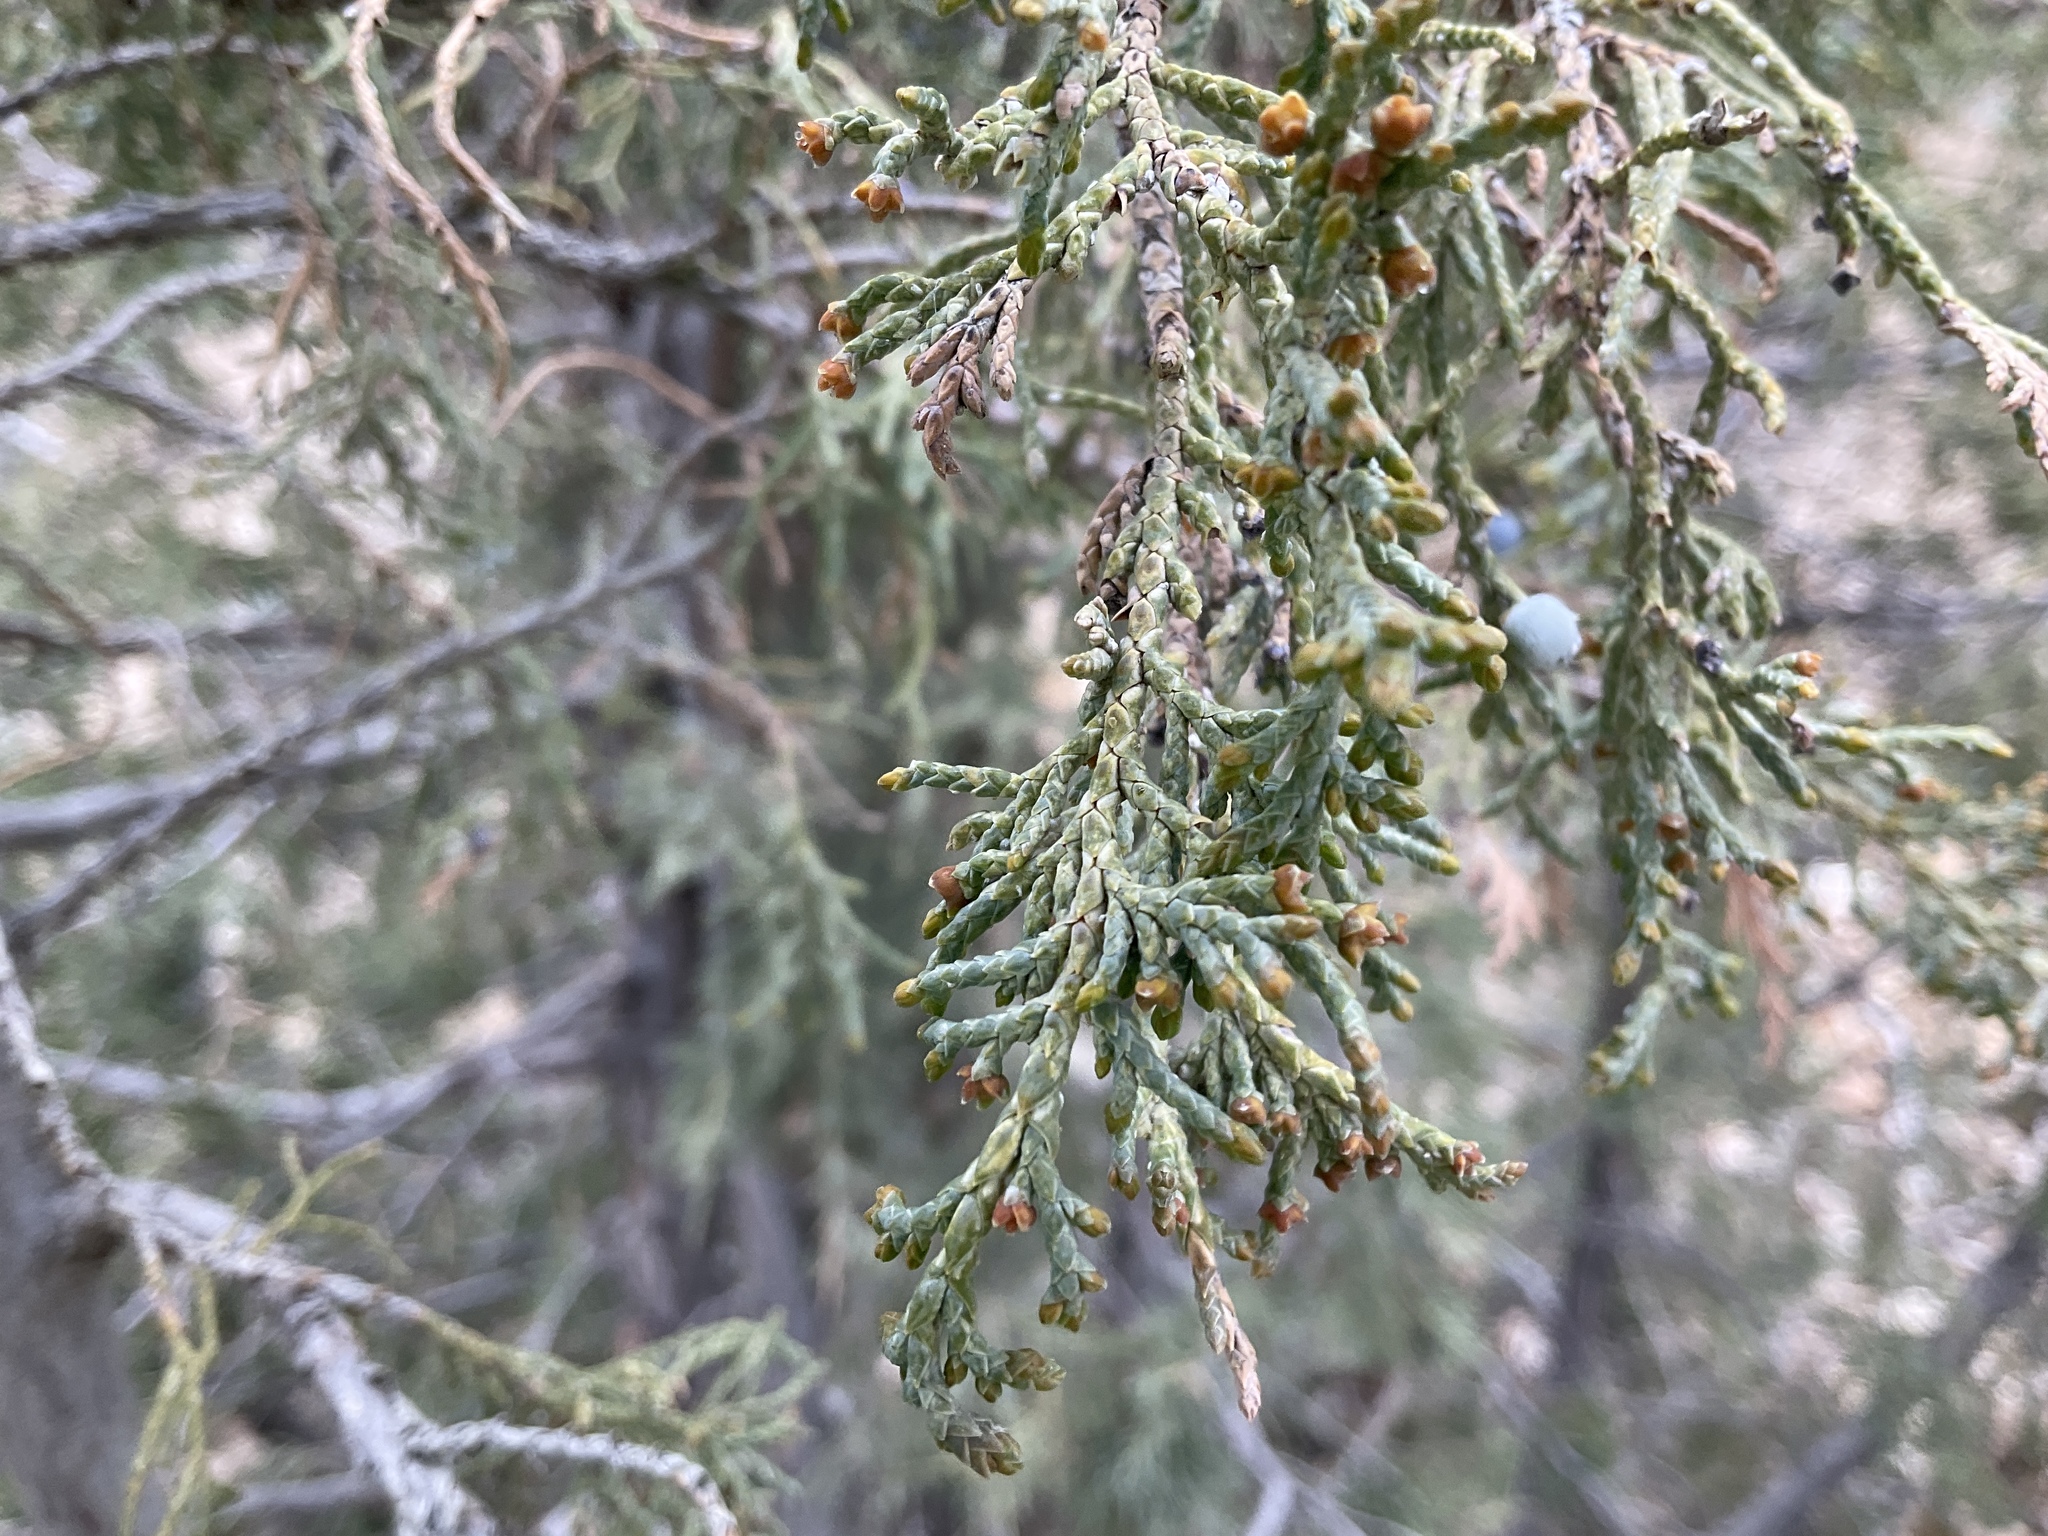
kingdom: Plantae
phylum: Tracheophyta
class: Pinopsida
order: Pinales
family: Cupressaceae
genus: Juniperus
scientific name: Juniperus scopulorum
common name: Rocky mountain juniper
